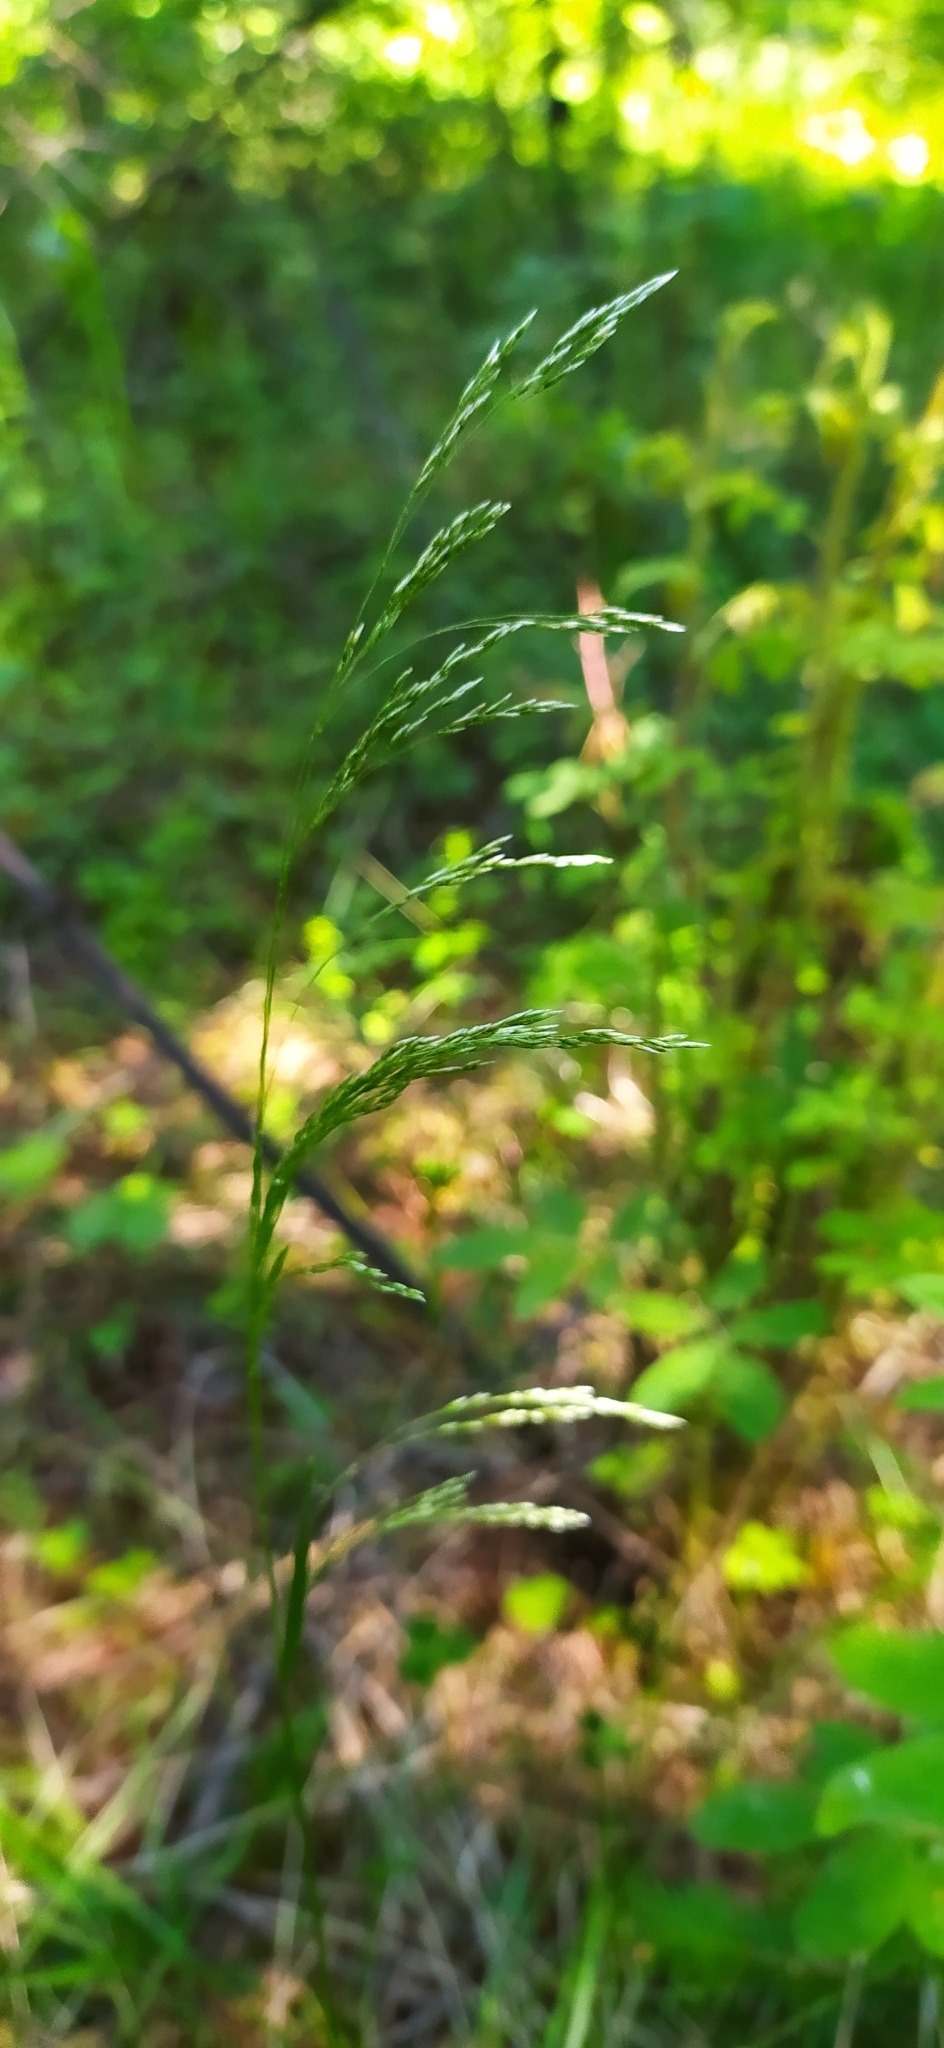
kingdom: Plantae
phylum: Tracheophyta
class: Liliopsida
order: Poales
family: Poaceae
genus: Deschampsia
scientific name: Deschampsia cespitosa
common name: Tufted hair-grass
